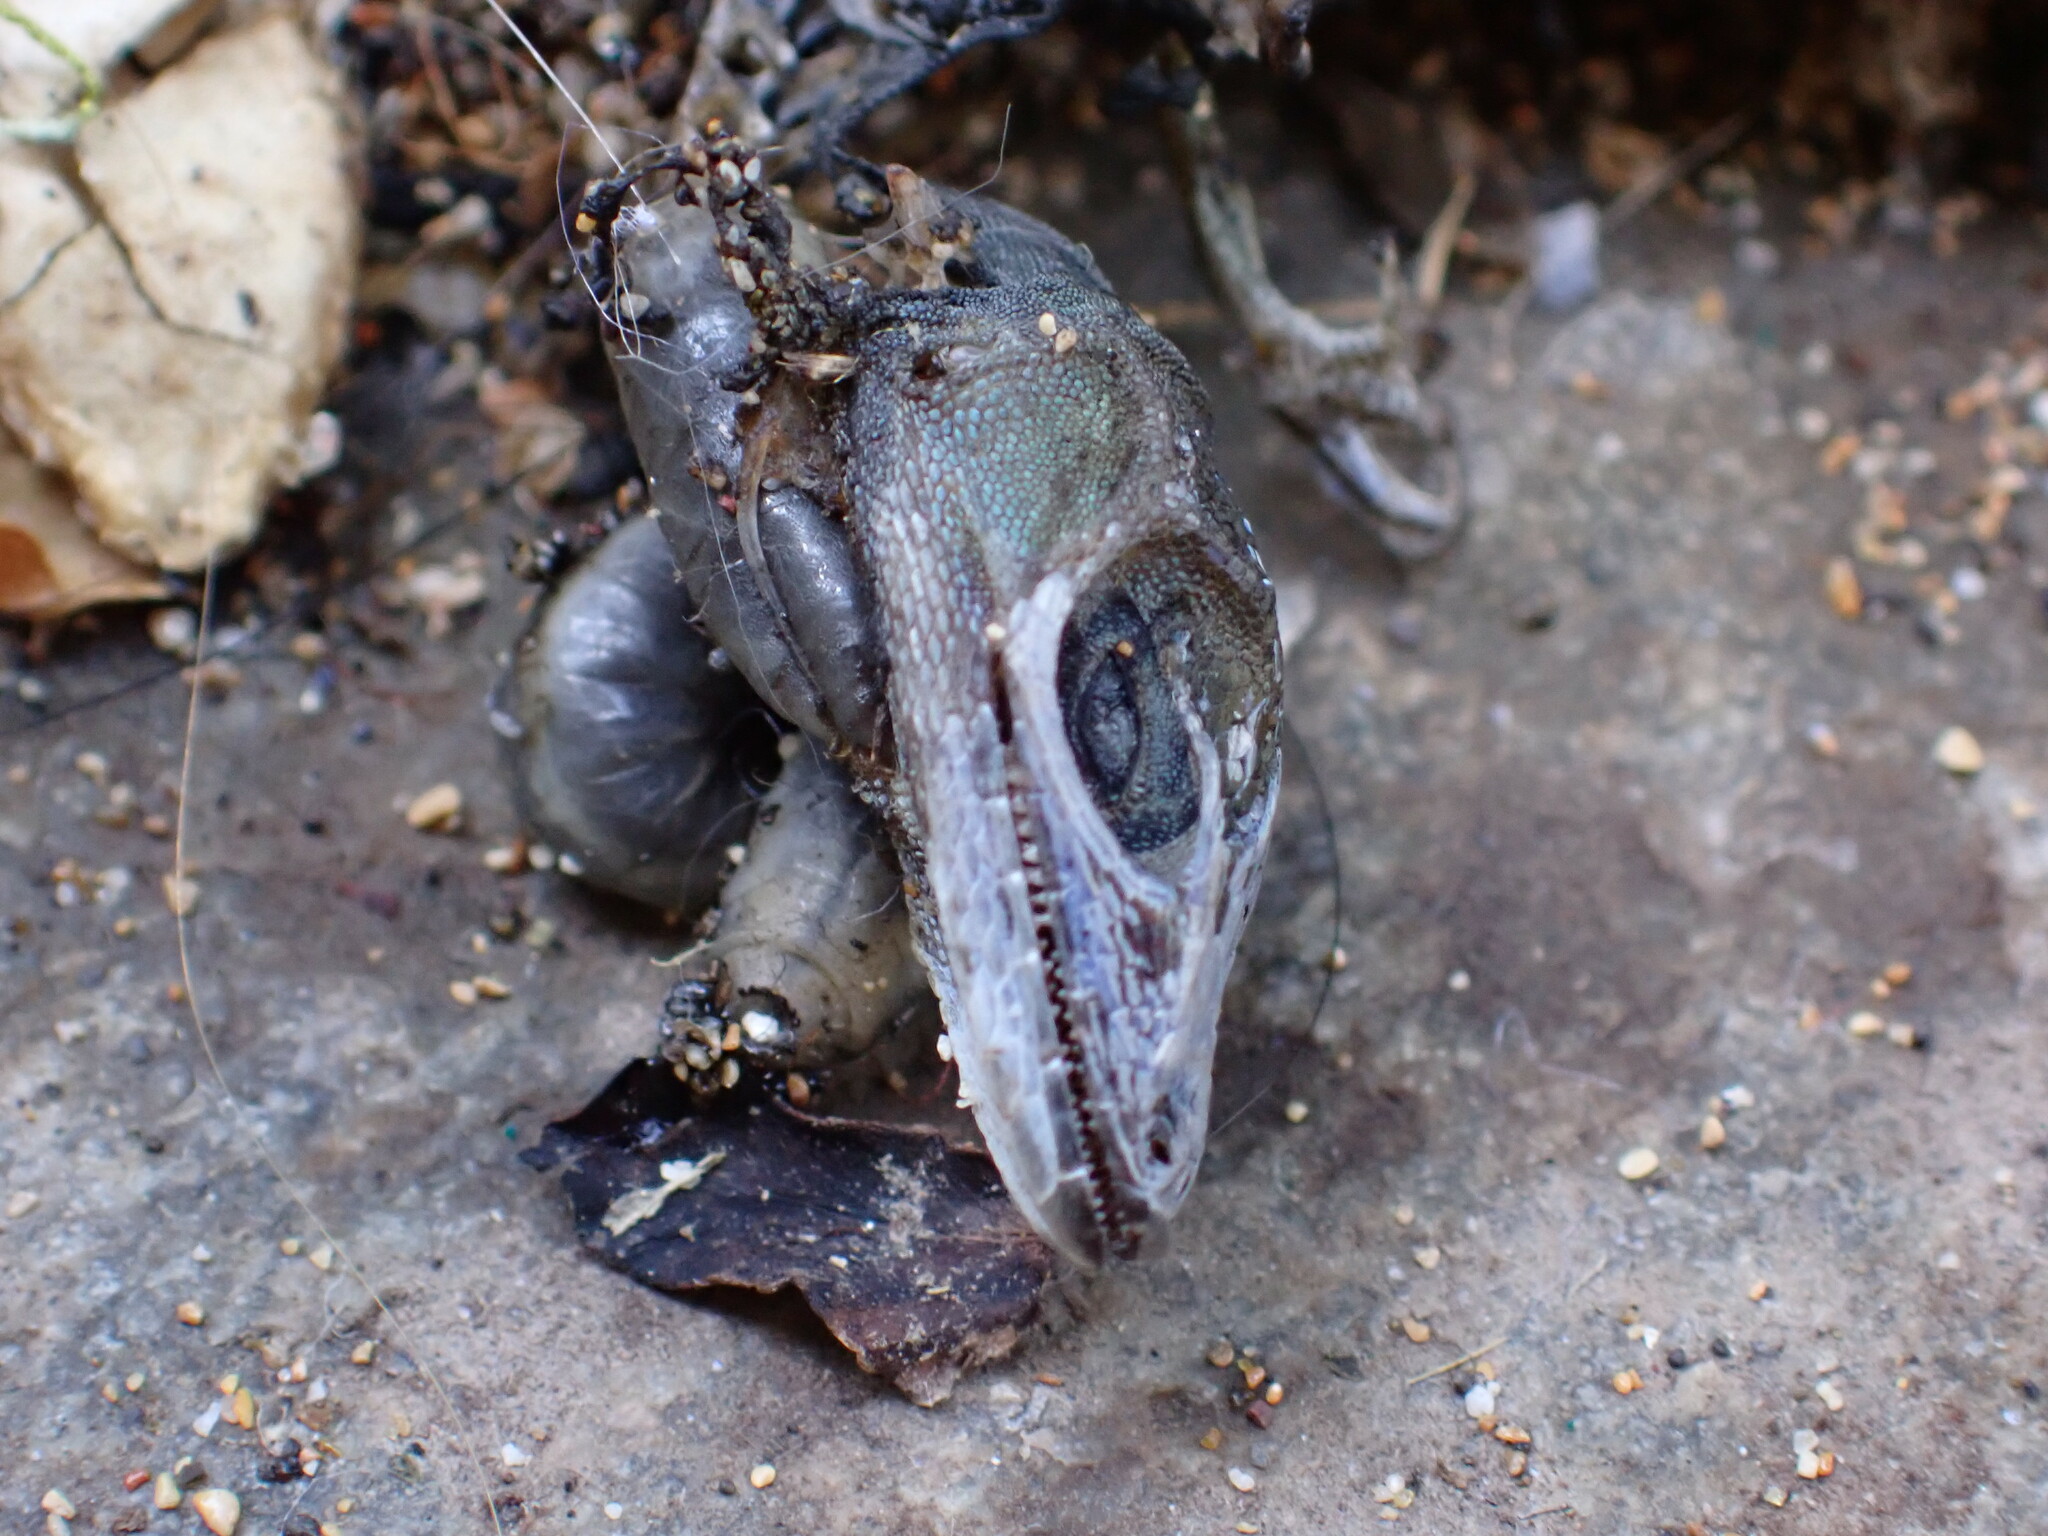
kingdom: Animalia
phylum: Chordata
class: Squamata
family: Dactyloidae
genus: Anolis
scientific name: Anolis sagrei
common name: Brown anole
